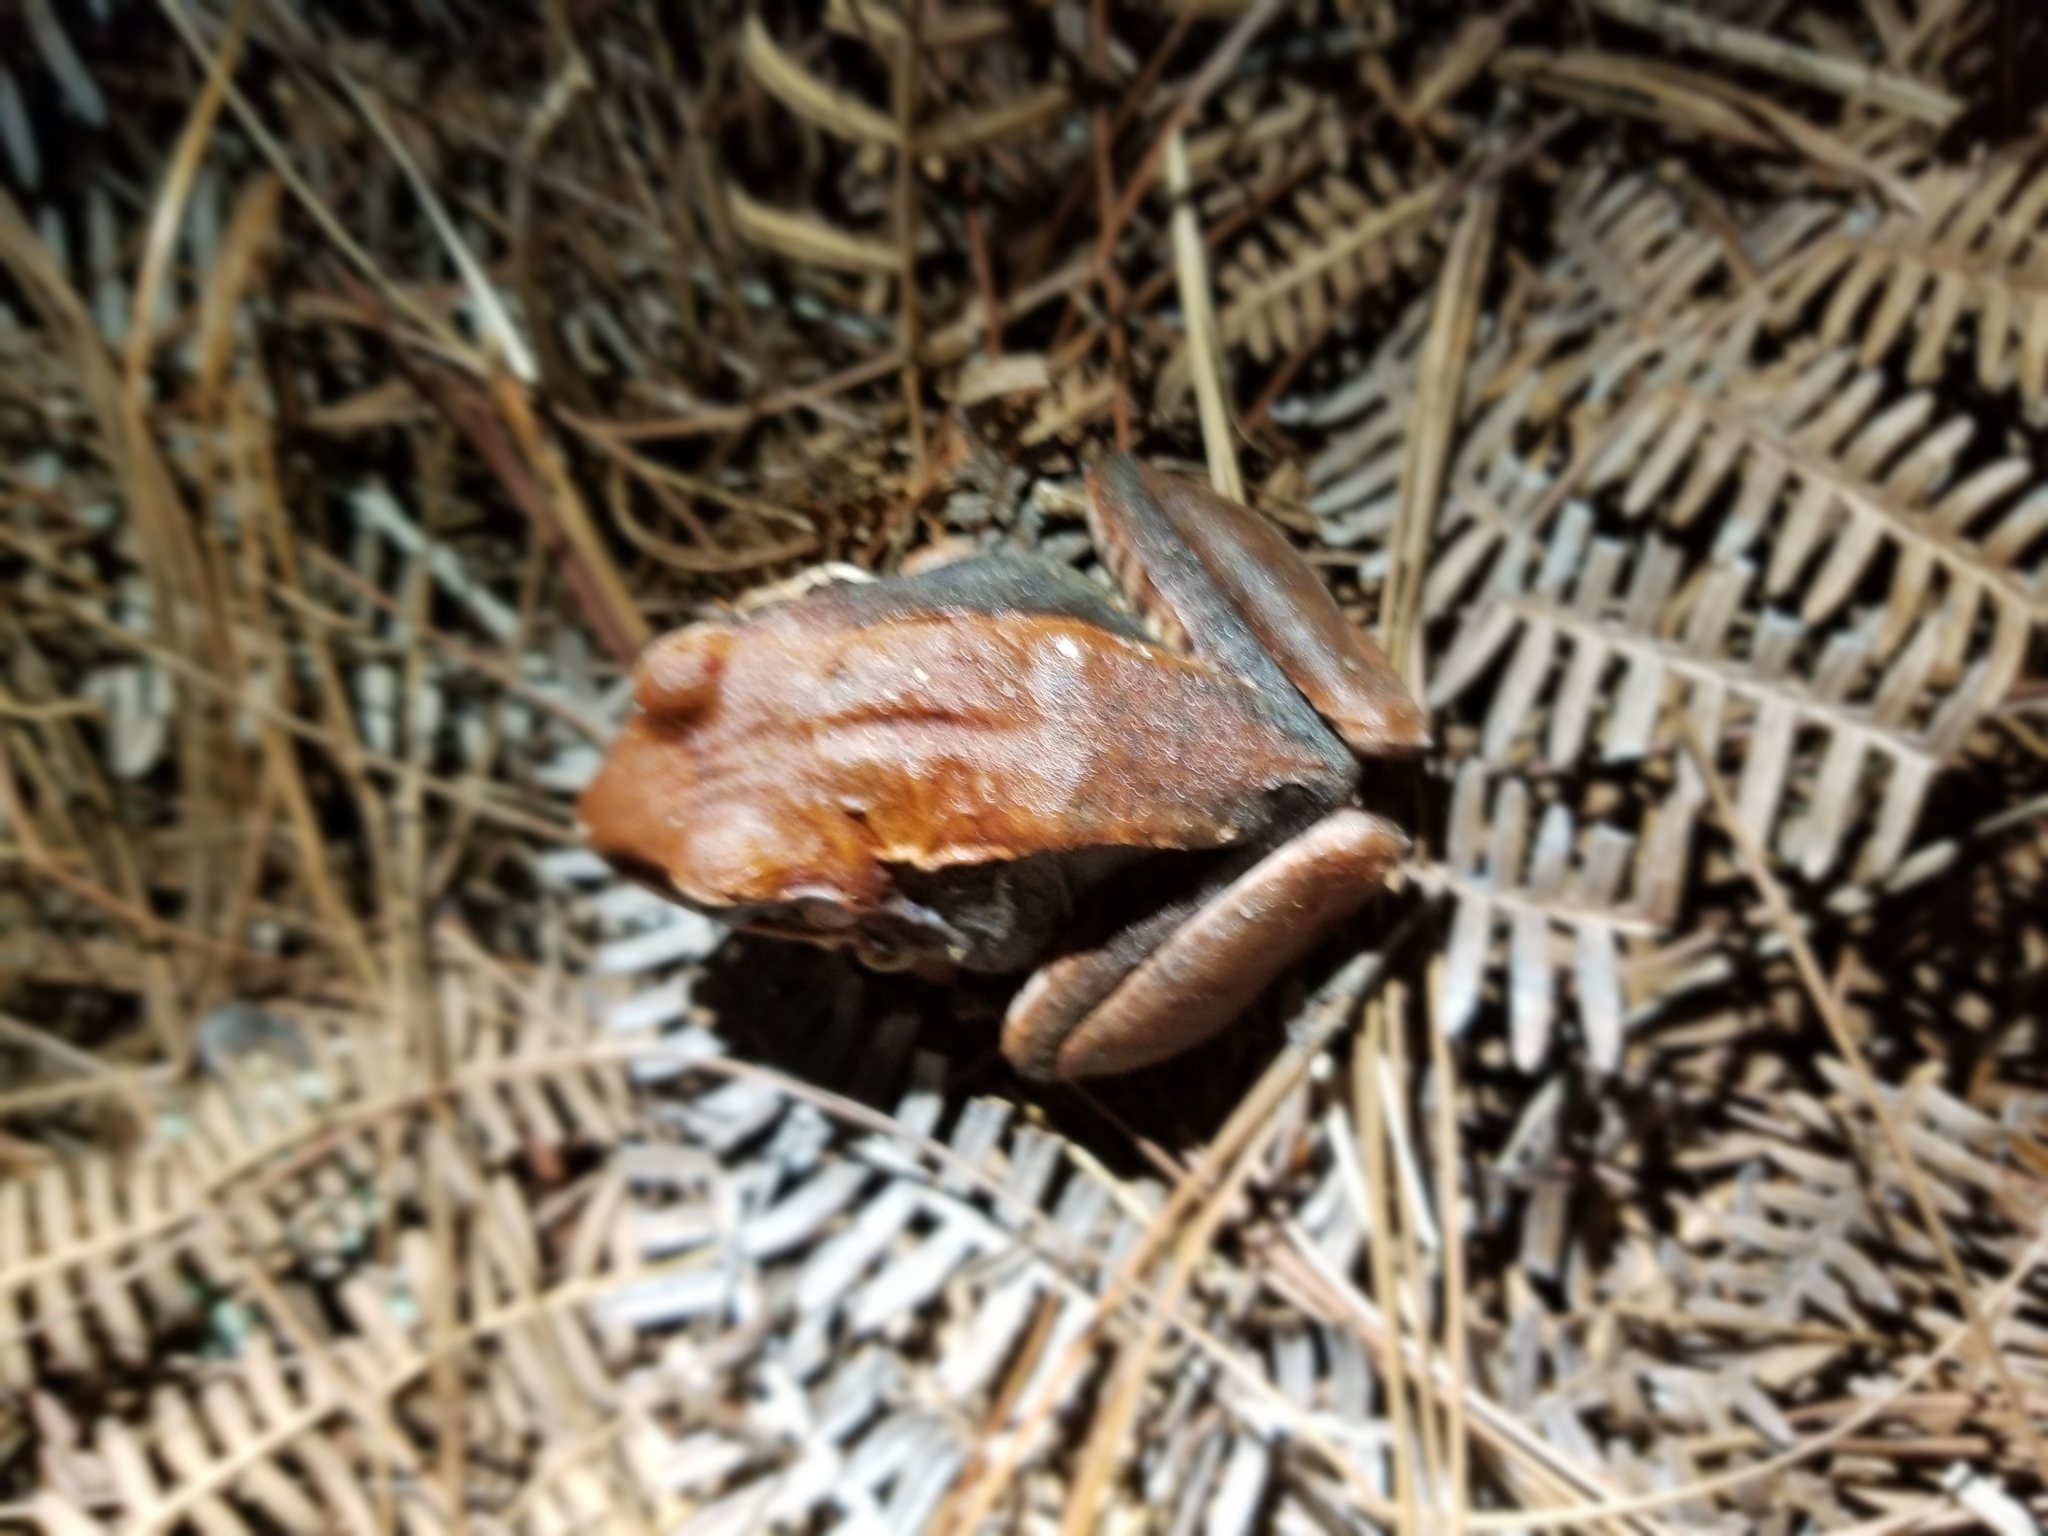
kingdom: Animalia
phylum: Chordata
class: Amphibia
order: Anura
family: Eleutherodactylidae
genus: Eleutherodactylus
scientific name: Eleutherodactylus inoptatus
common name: Hispaniolan giant frog
